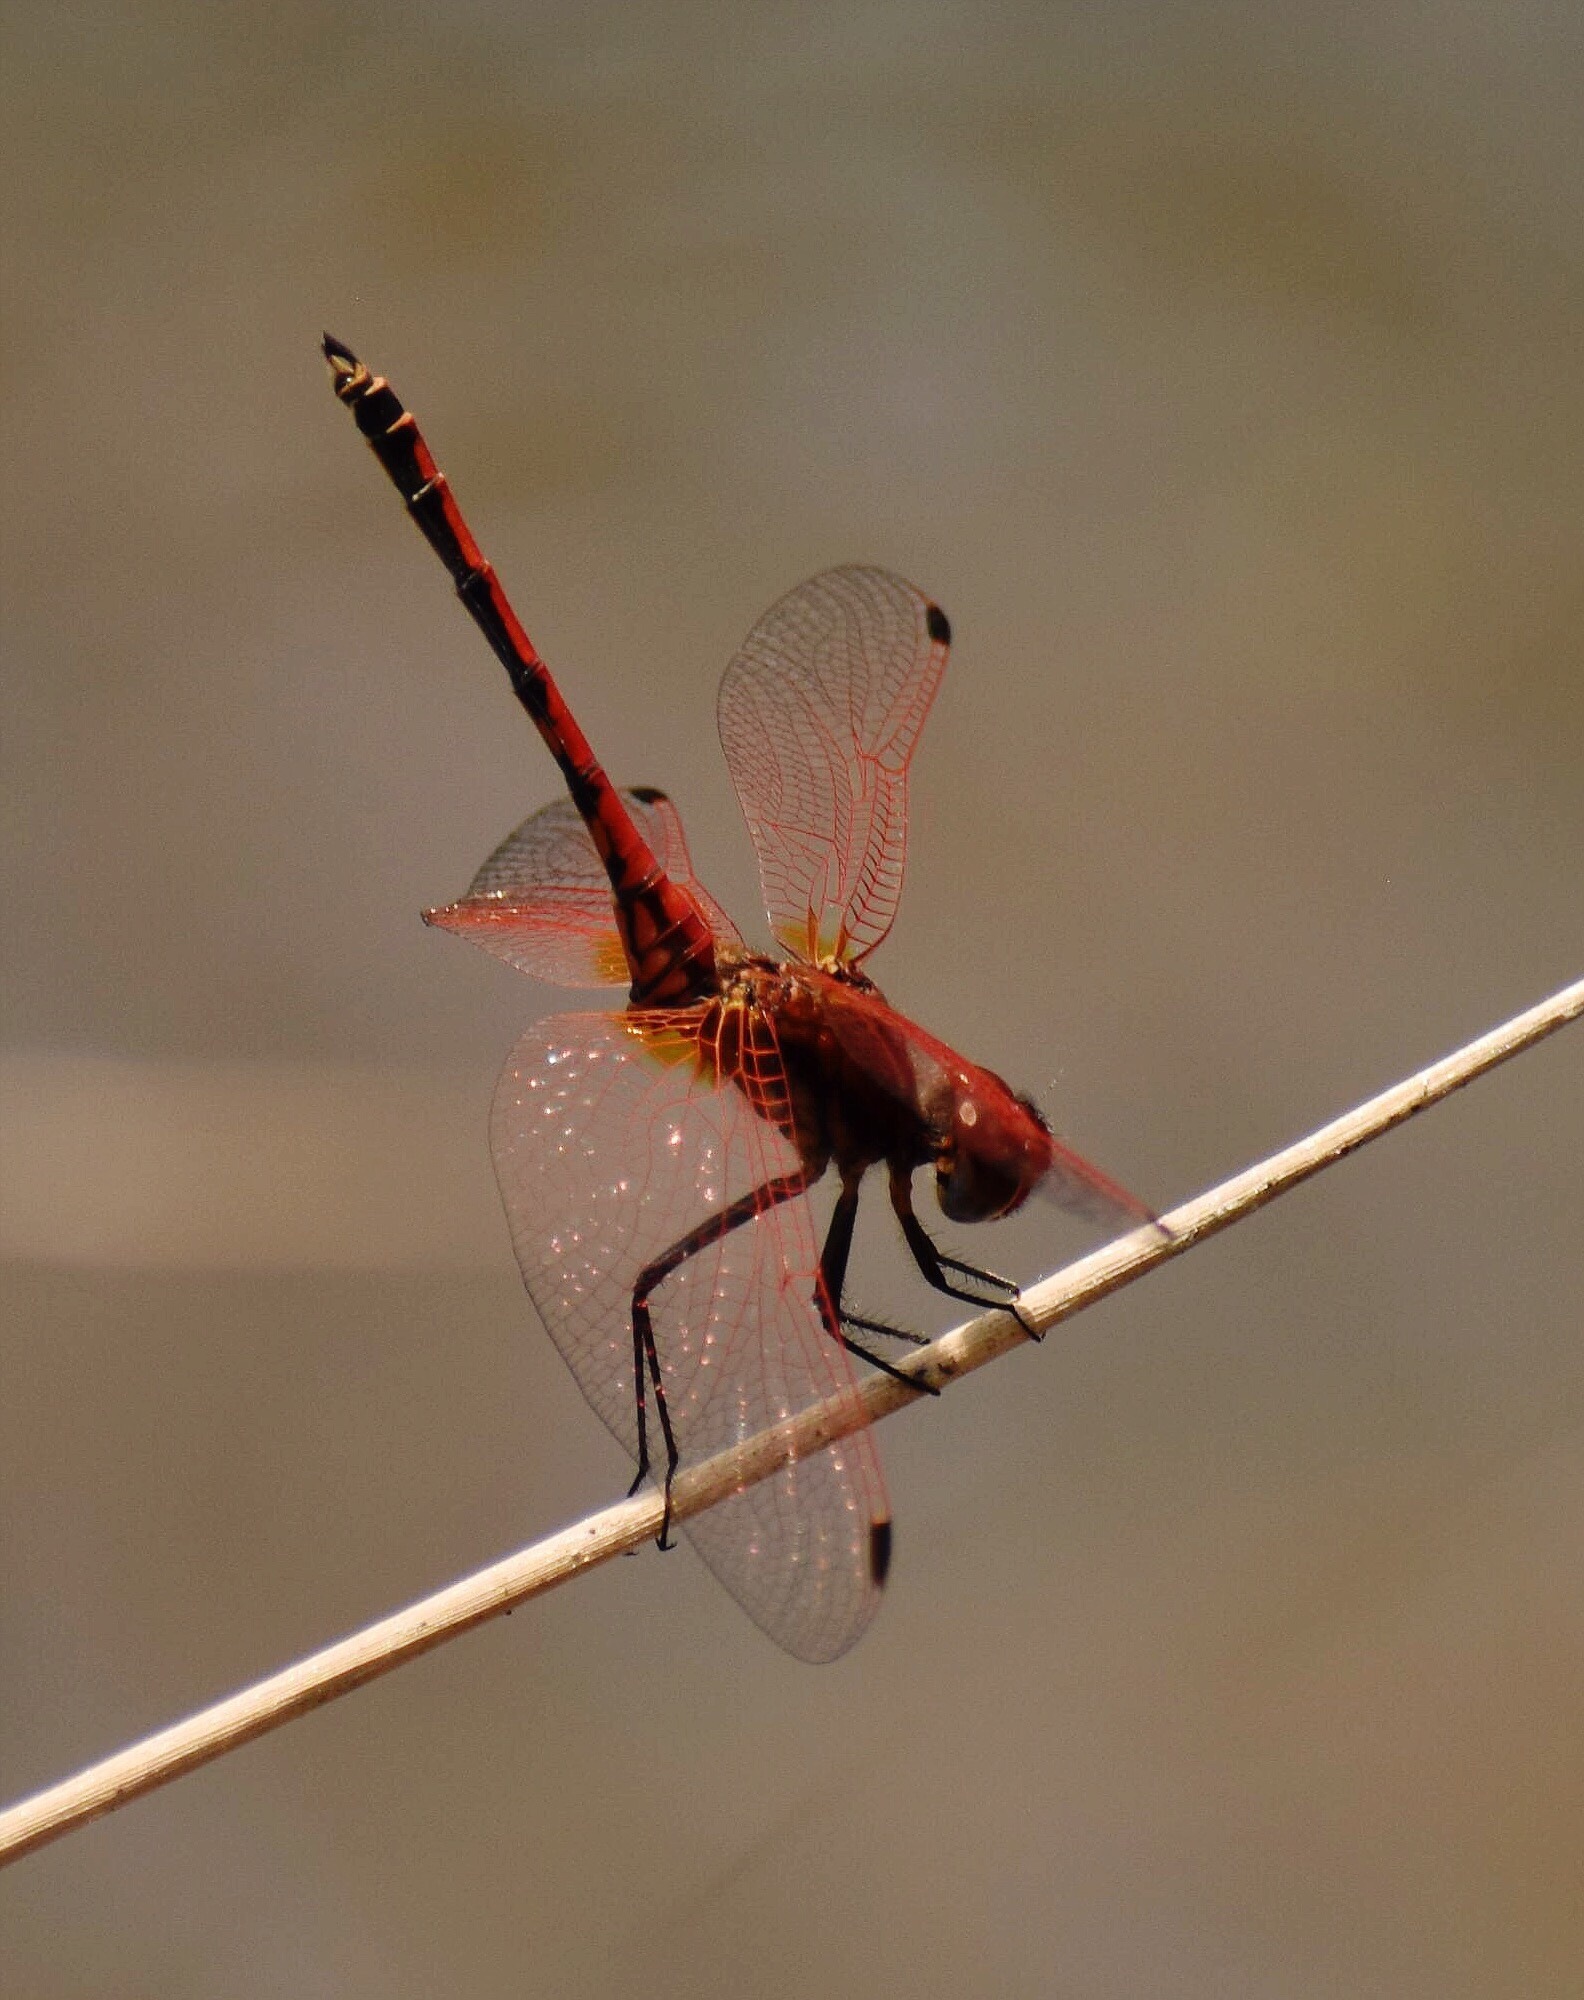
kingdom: Animalia
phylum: Arthropoda
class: Insecta
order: Odonata
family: Libellulidae
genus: Trithemis
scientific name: Trithemis arteriosa
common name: Red-veined dropwing
